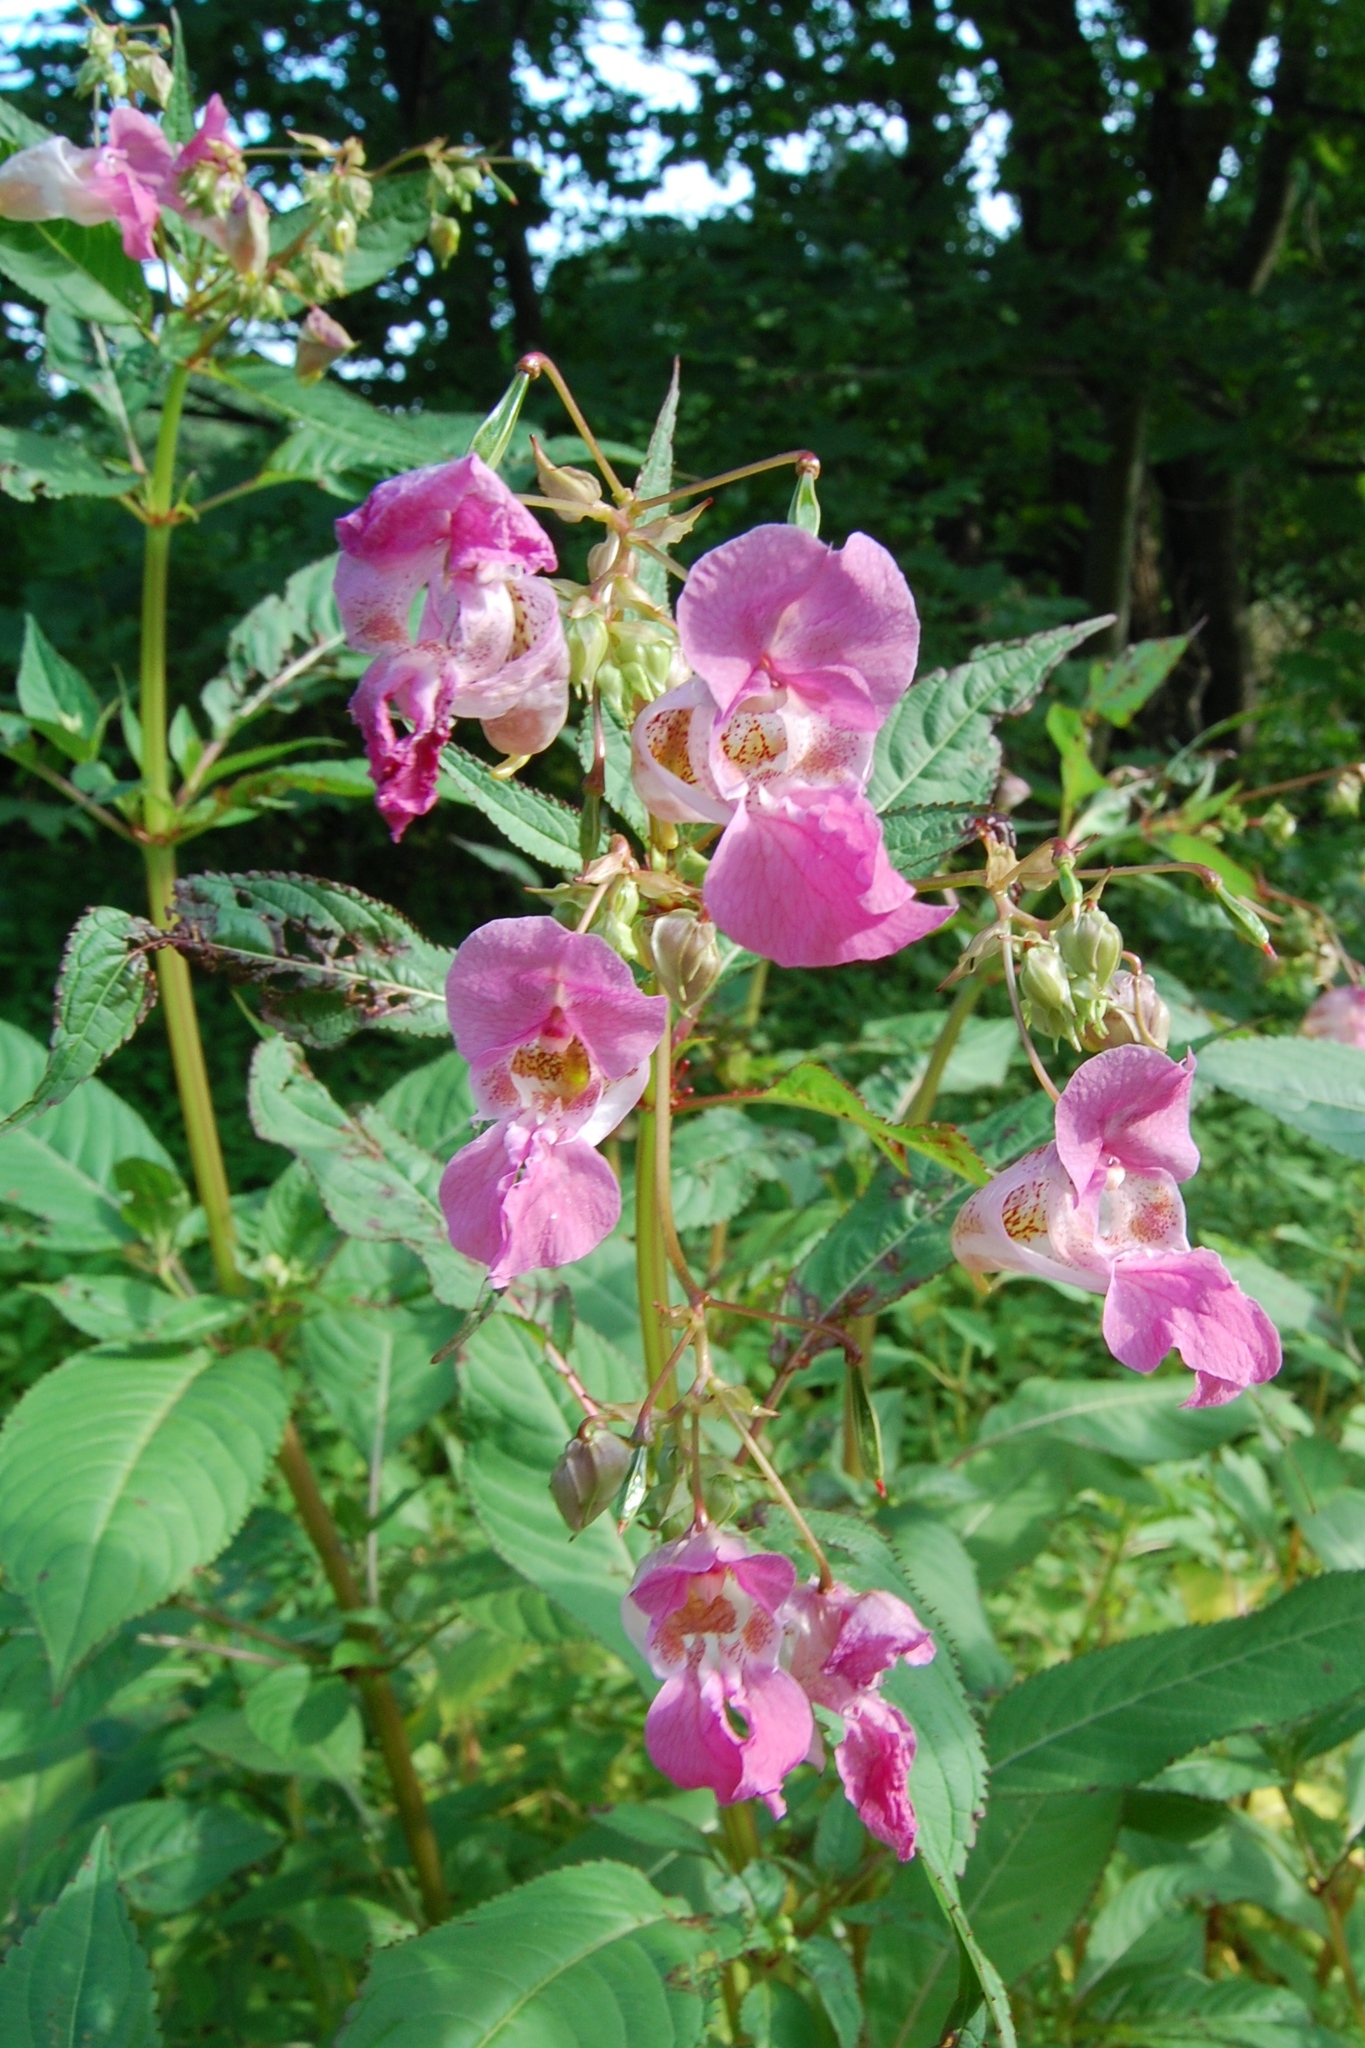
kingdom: Plantae
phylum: Tracheophyta
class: Magnoliopsida
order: Ericales
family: Balsaminaceae
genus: Impatiens
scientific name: Impatiens glandulifera
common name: Himalayan balsam
